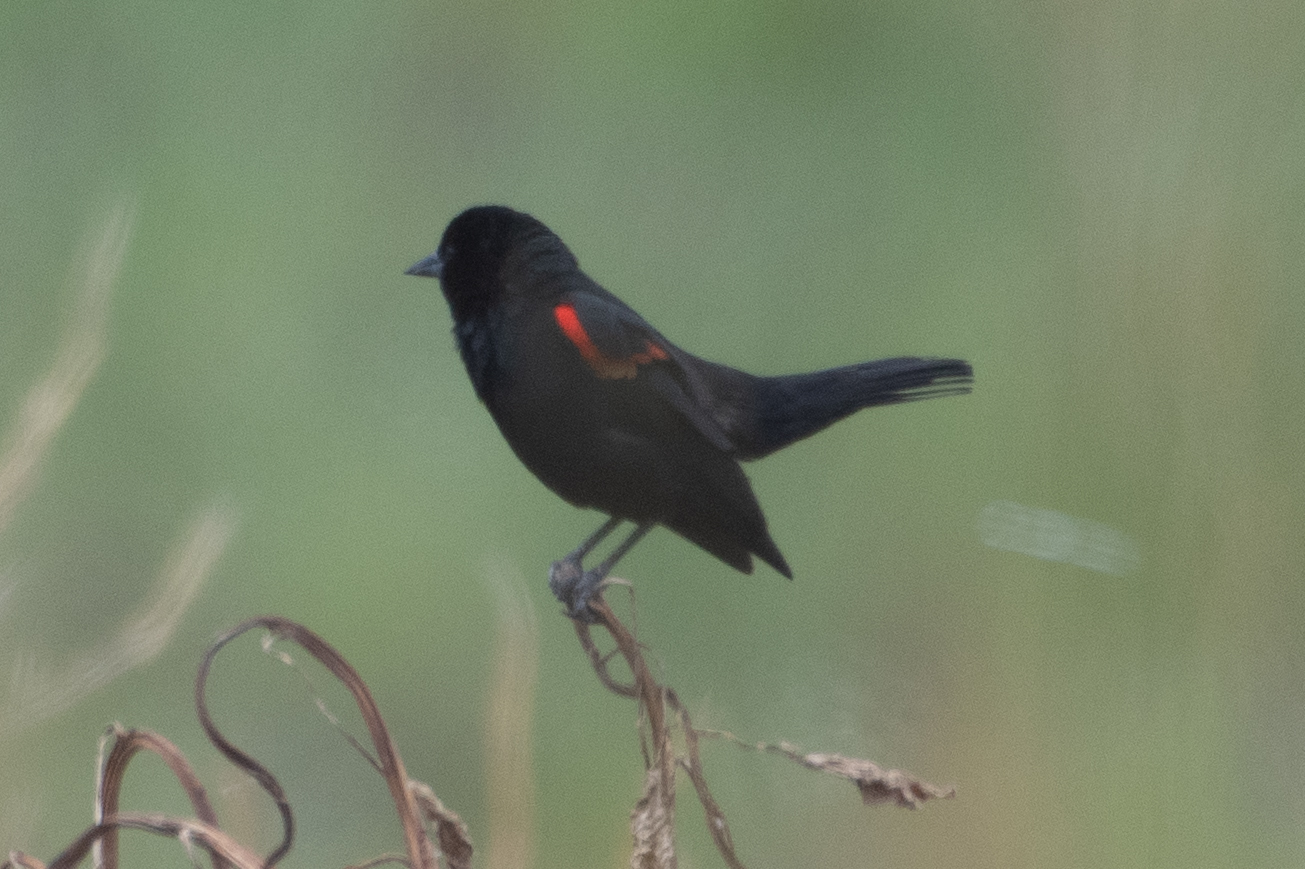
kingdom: Animalia
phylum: Chordata
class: Aves
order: Passeriformes
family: Icteridae
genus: Agelaius
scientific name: Agelaius phoeniceus
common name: Red-winged blackbird
